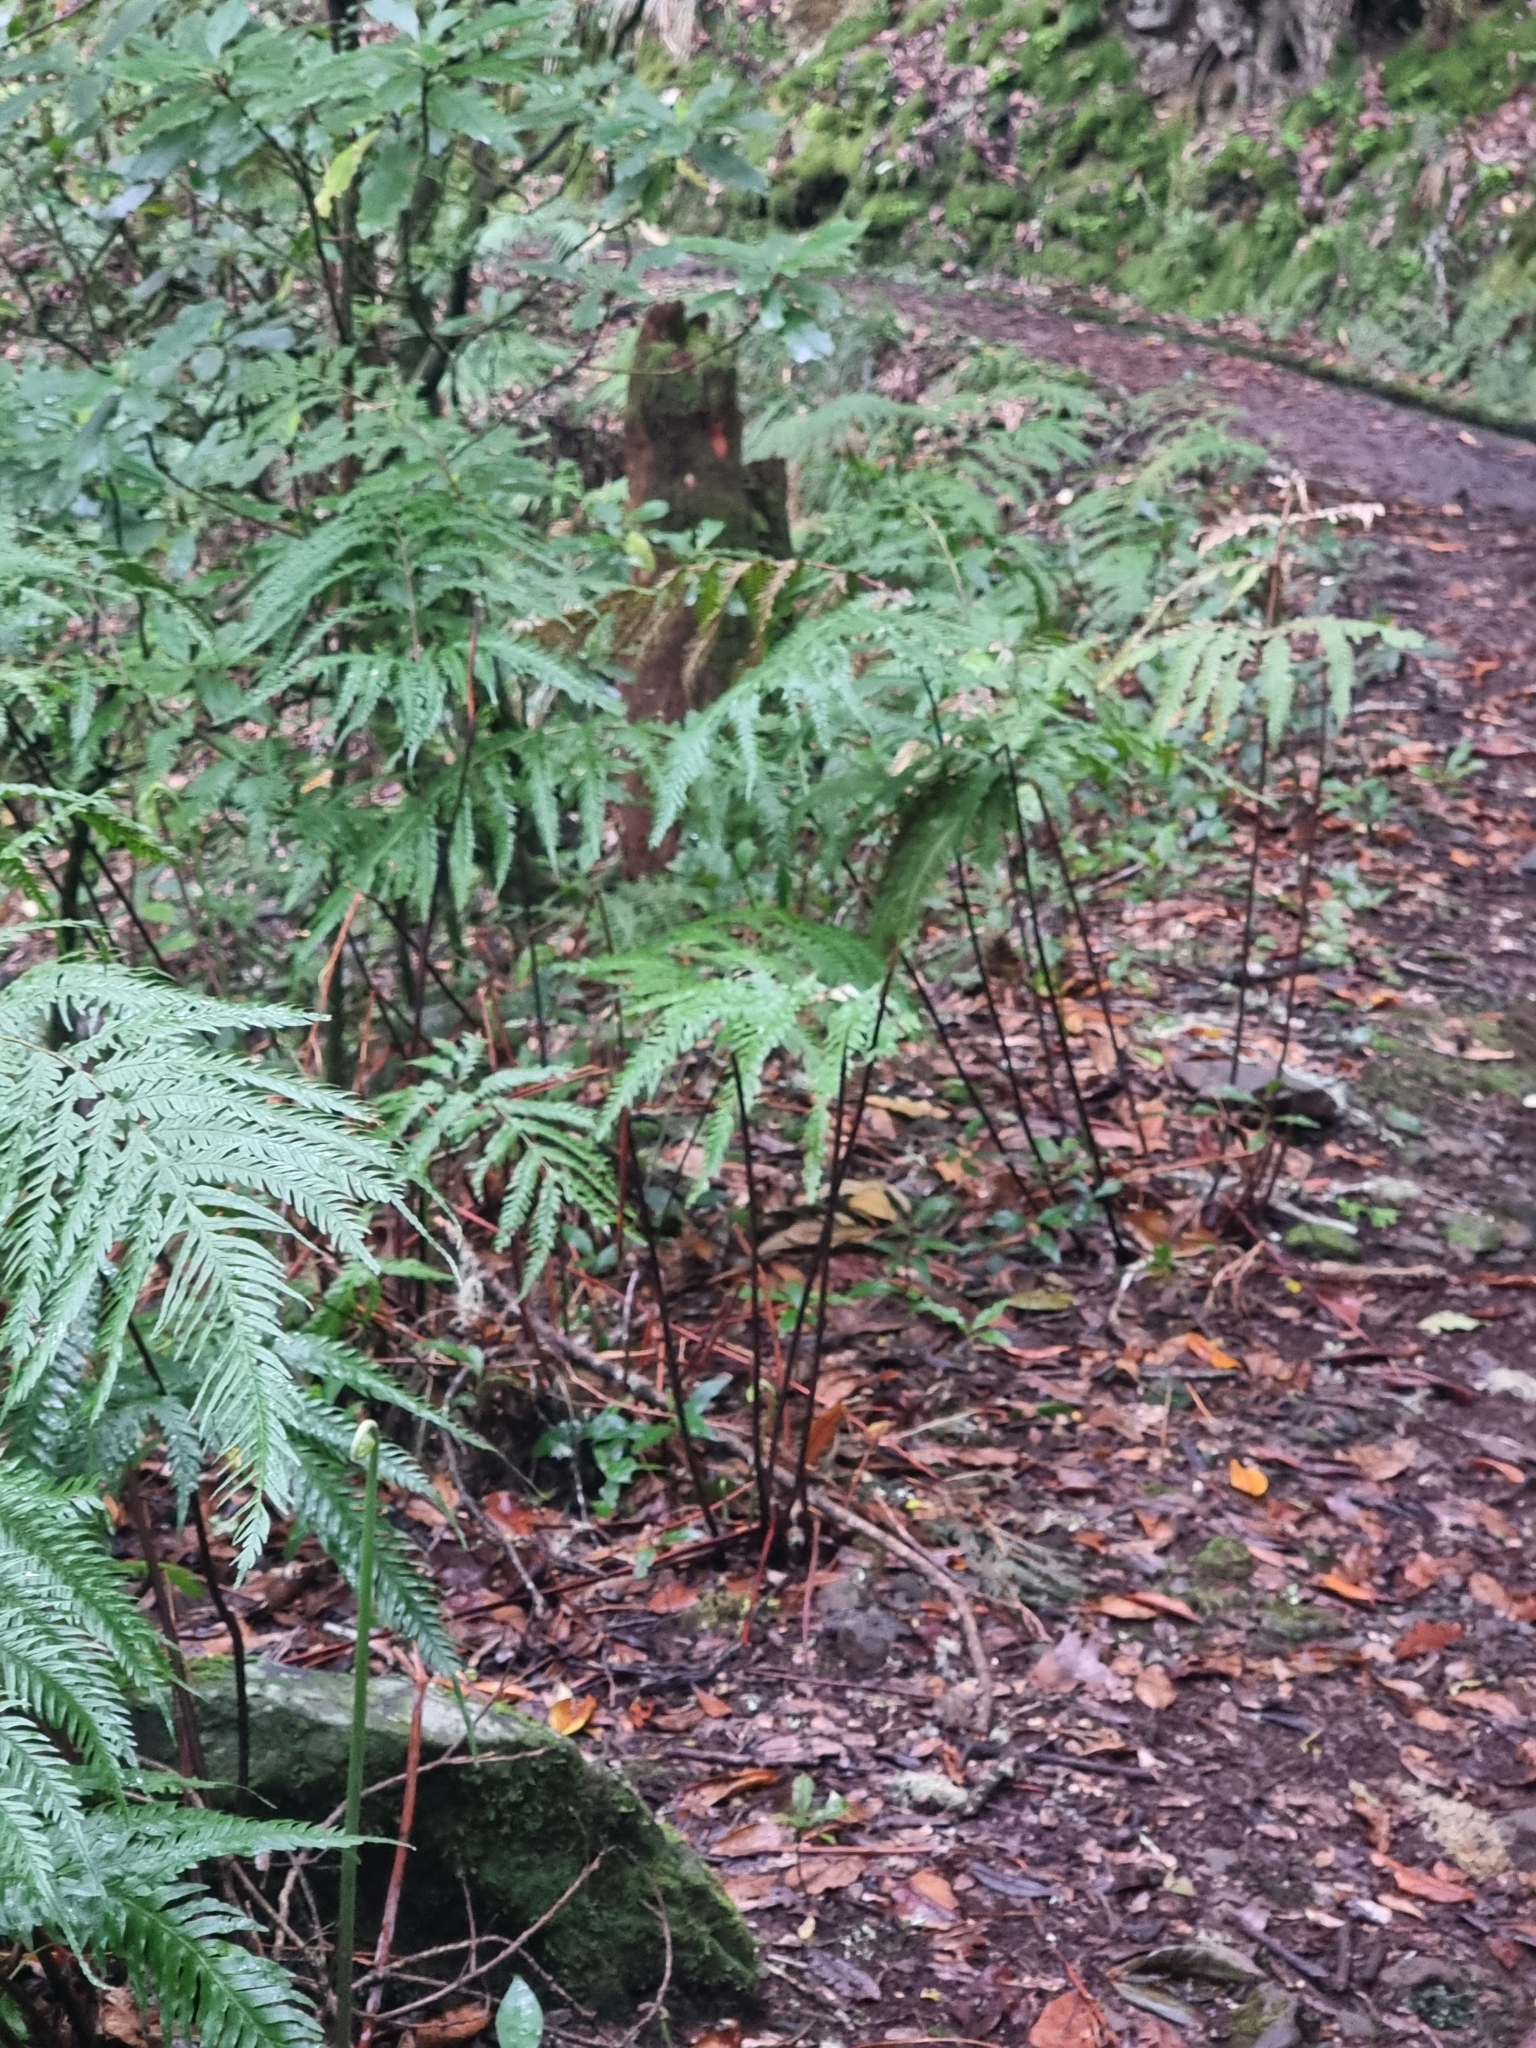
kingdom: Plantae
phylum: Tracheophyta
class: Polypodiopsida
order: Polypodiales
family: Pteridaceae
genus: Pteris
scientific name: Pteris incompleta
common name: Laurisilva brake
